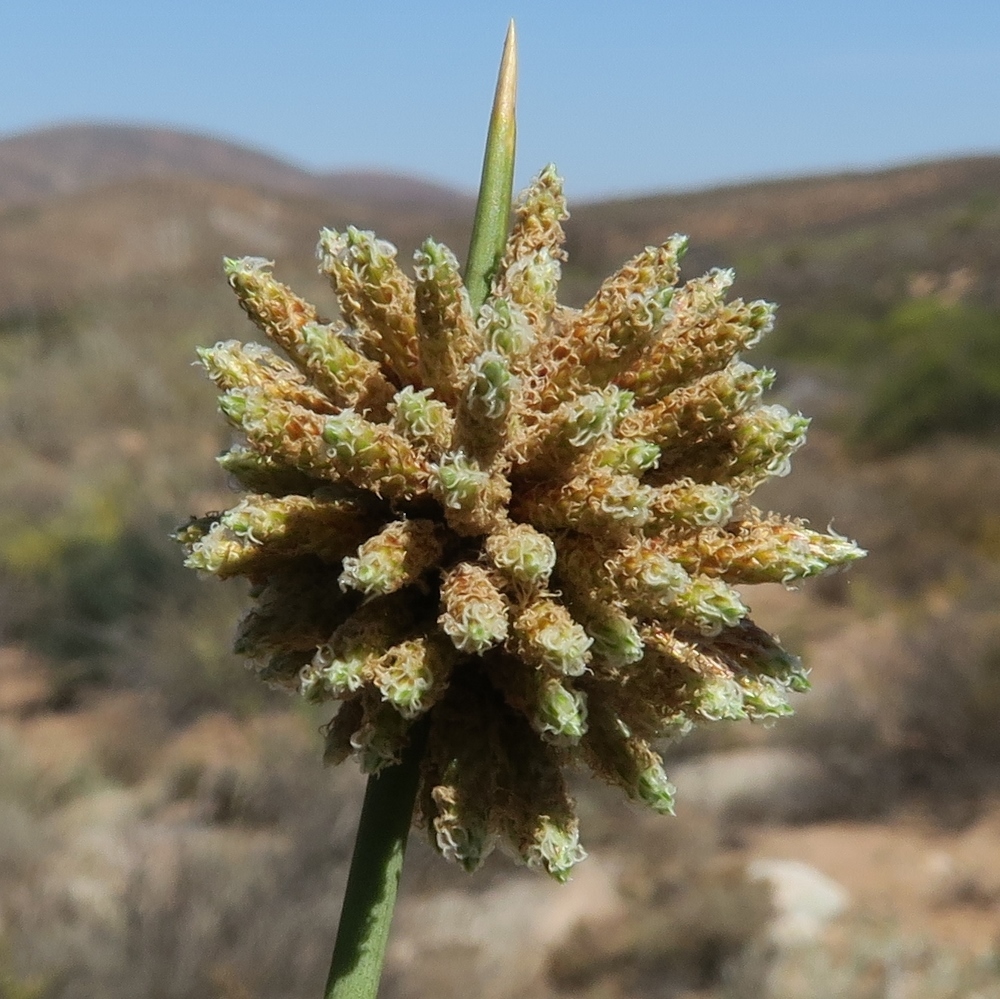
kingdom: Plantae
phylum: Tracheophyta
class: Liliopsida
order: Poales
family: Cyperaceae
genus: Afroscirpoides
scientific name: Afroscirpoides dioeca
